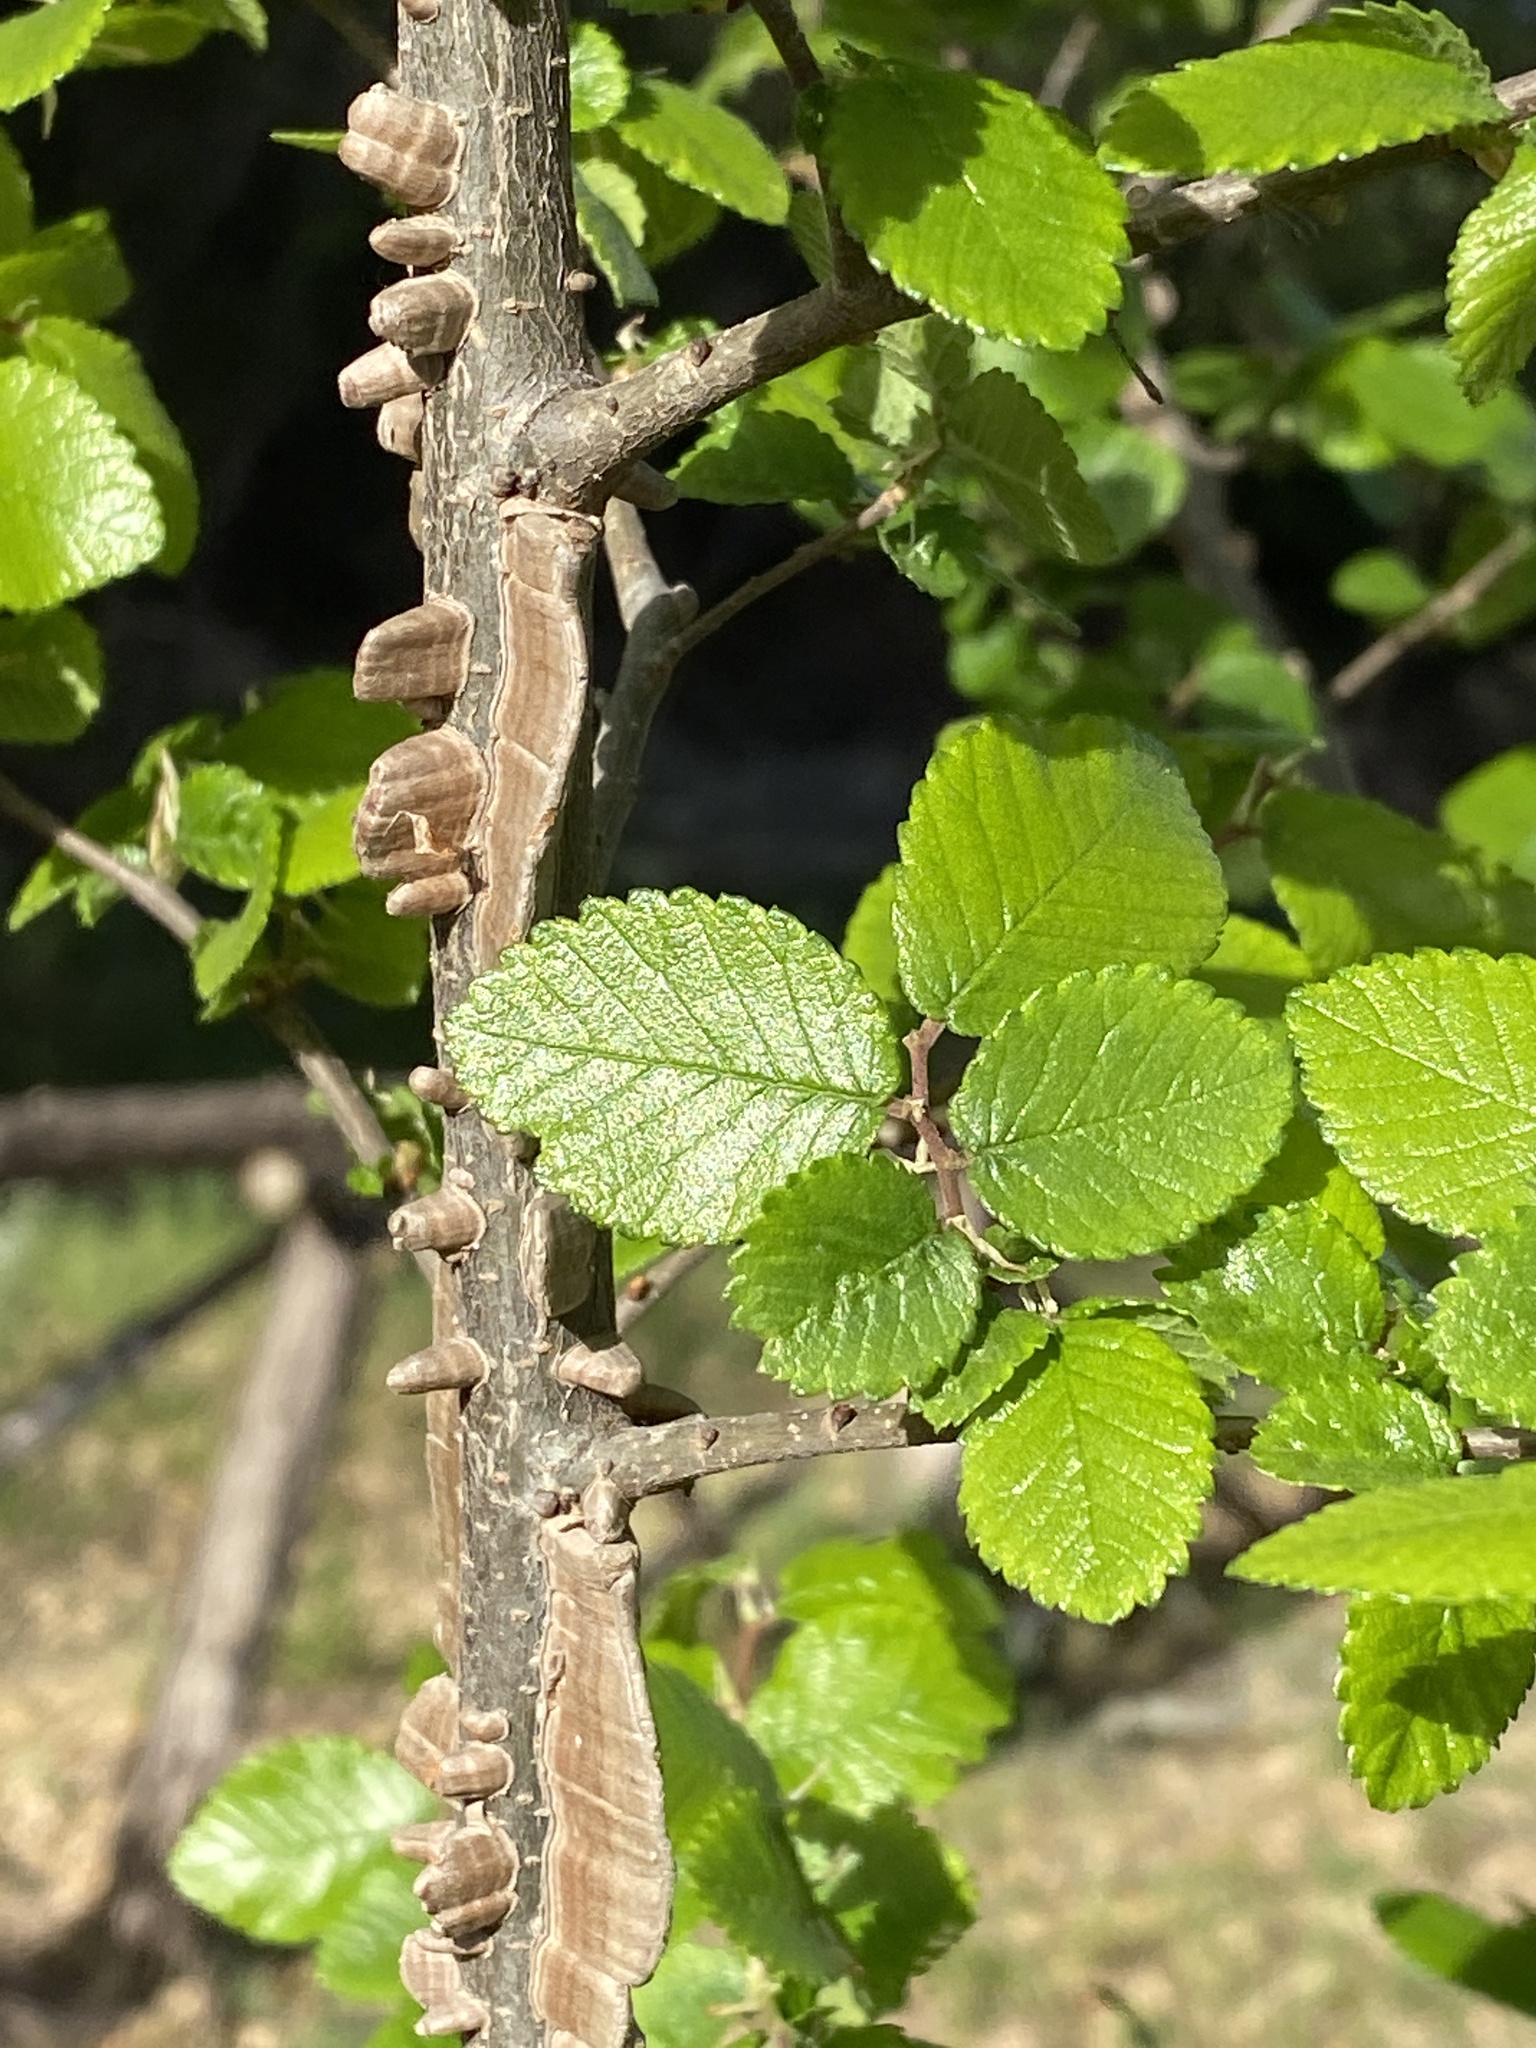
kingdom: Plantae
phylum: Tracheophyta
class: Magnoliopsida
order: Rosales
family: Ulmaceae
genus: Ulmus
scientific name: Ulmus crassifolia
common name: Basket elm
